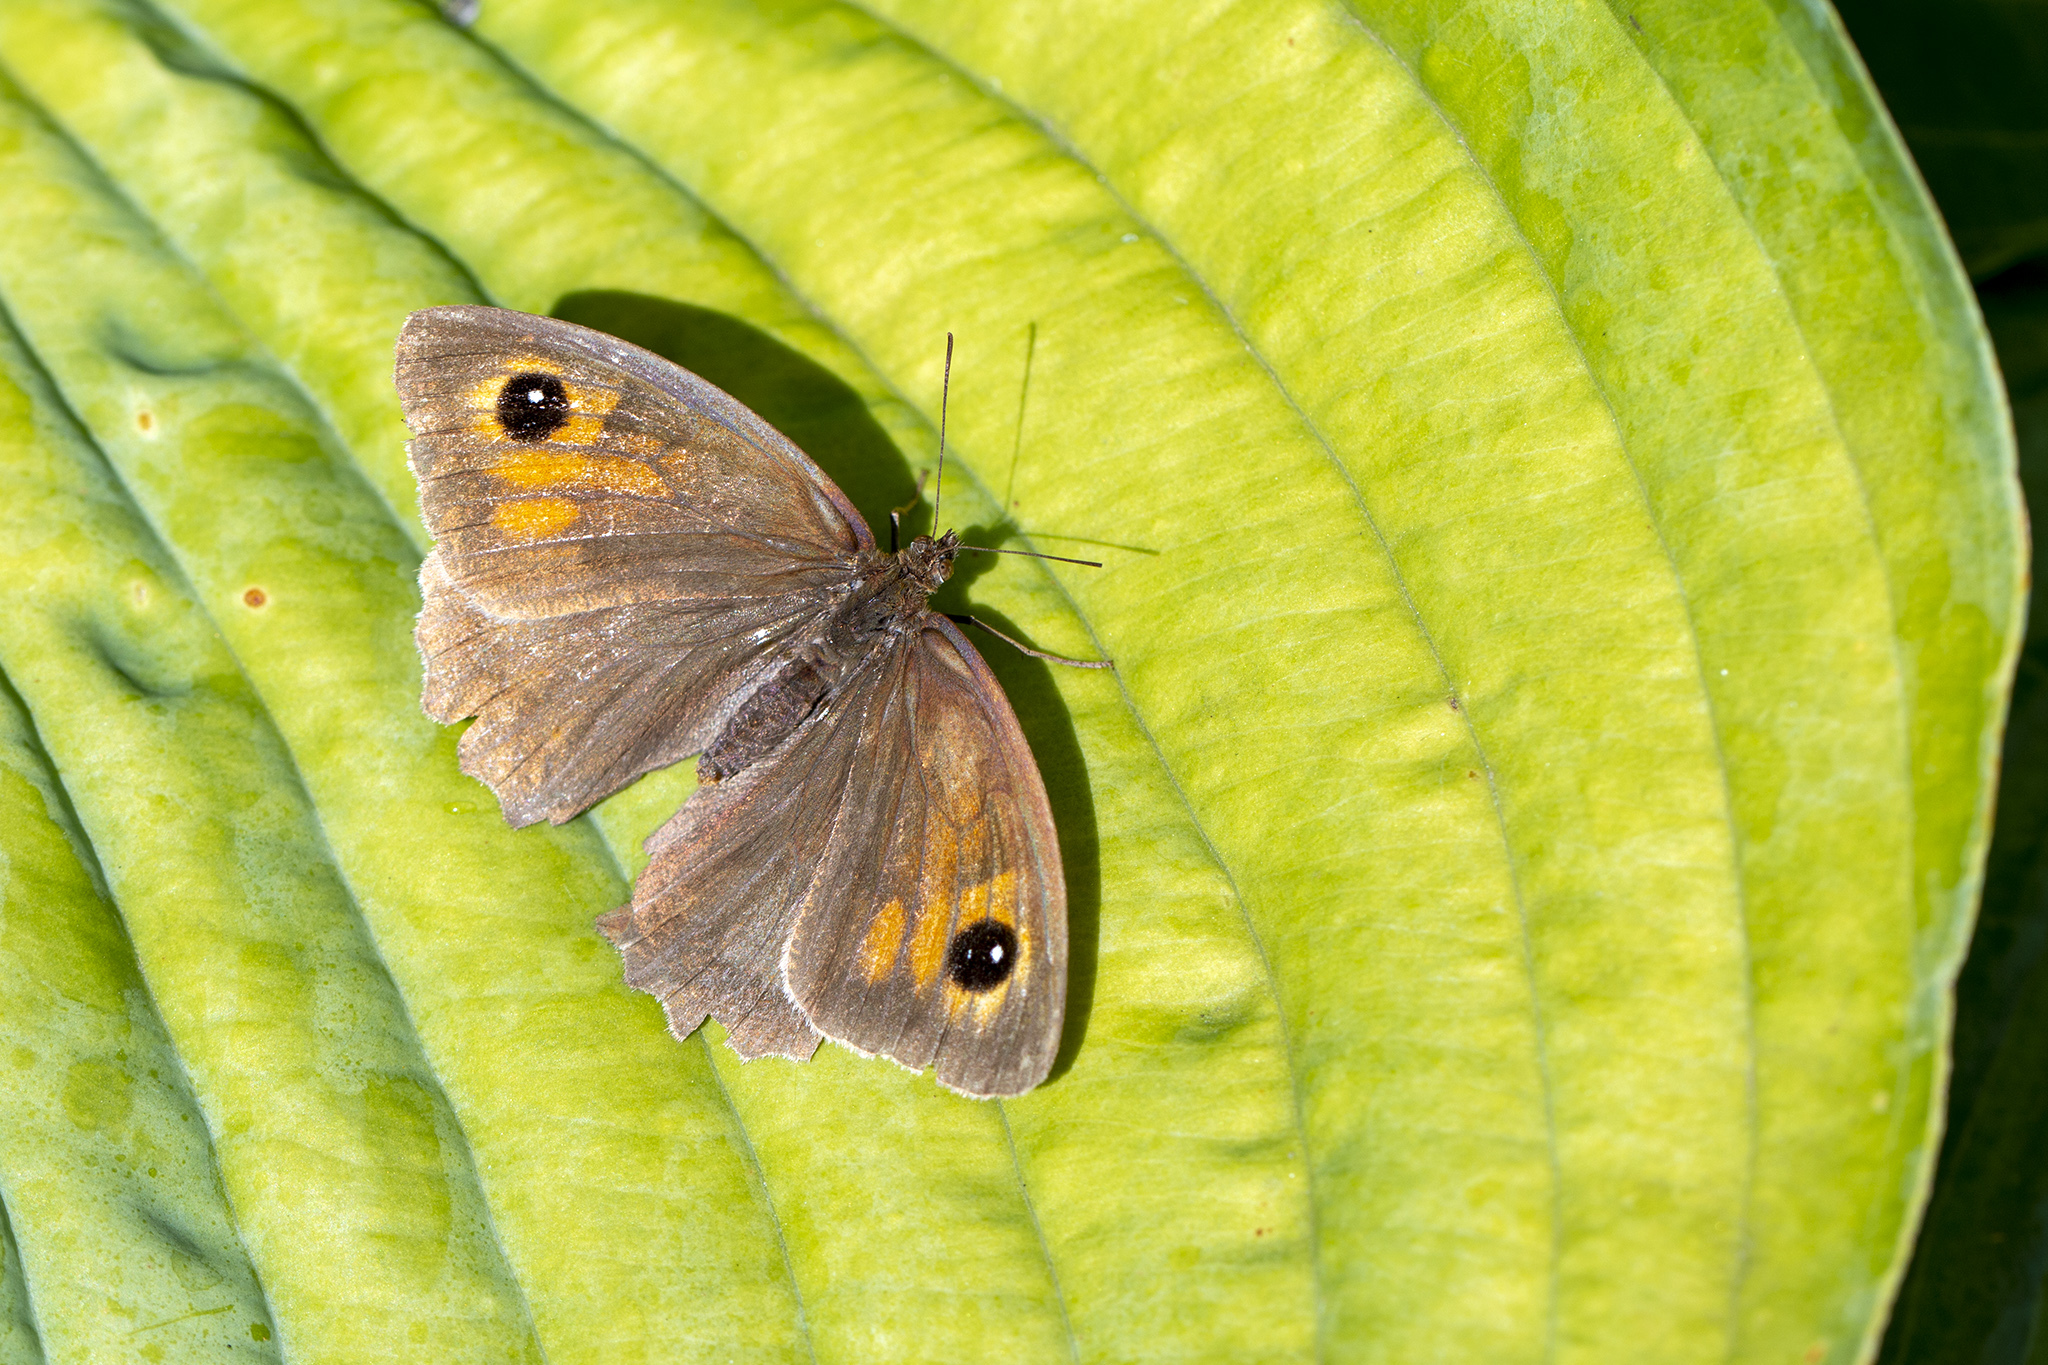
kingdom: Animalia
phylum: Arthropoda
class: Insecta
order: Lepidoptera
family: Nymphalidae
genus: Maniola
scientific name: Maniola jurtina
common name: Meadow brown
